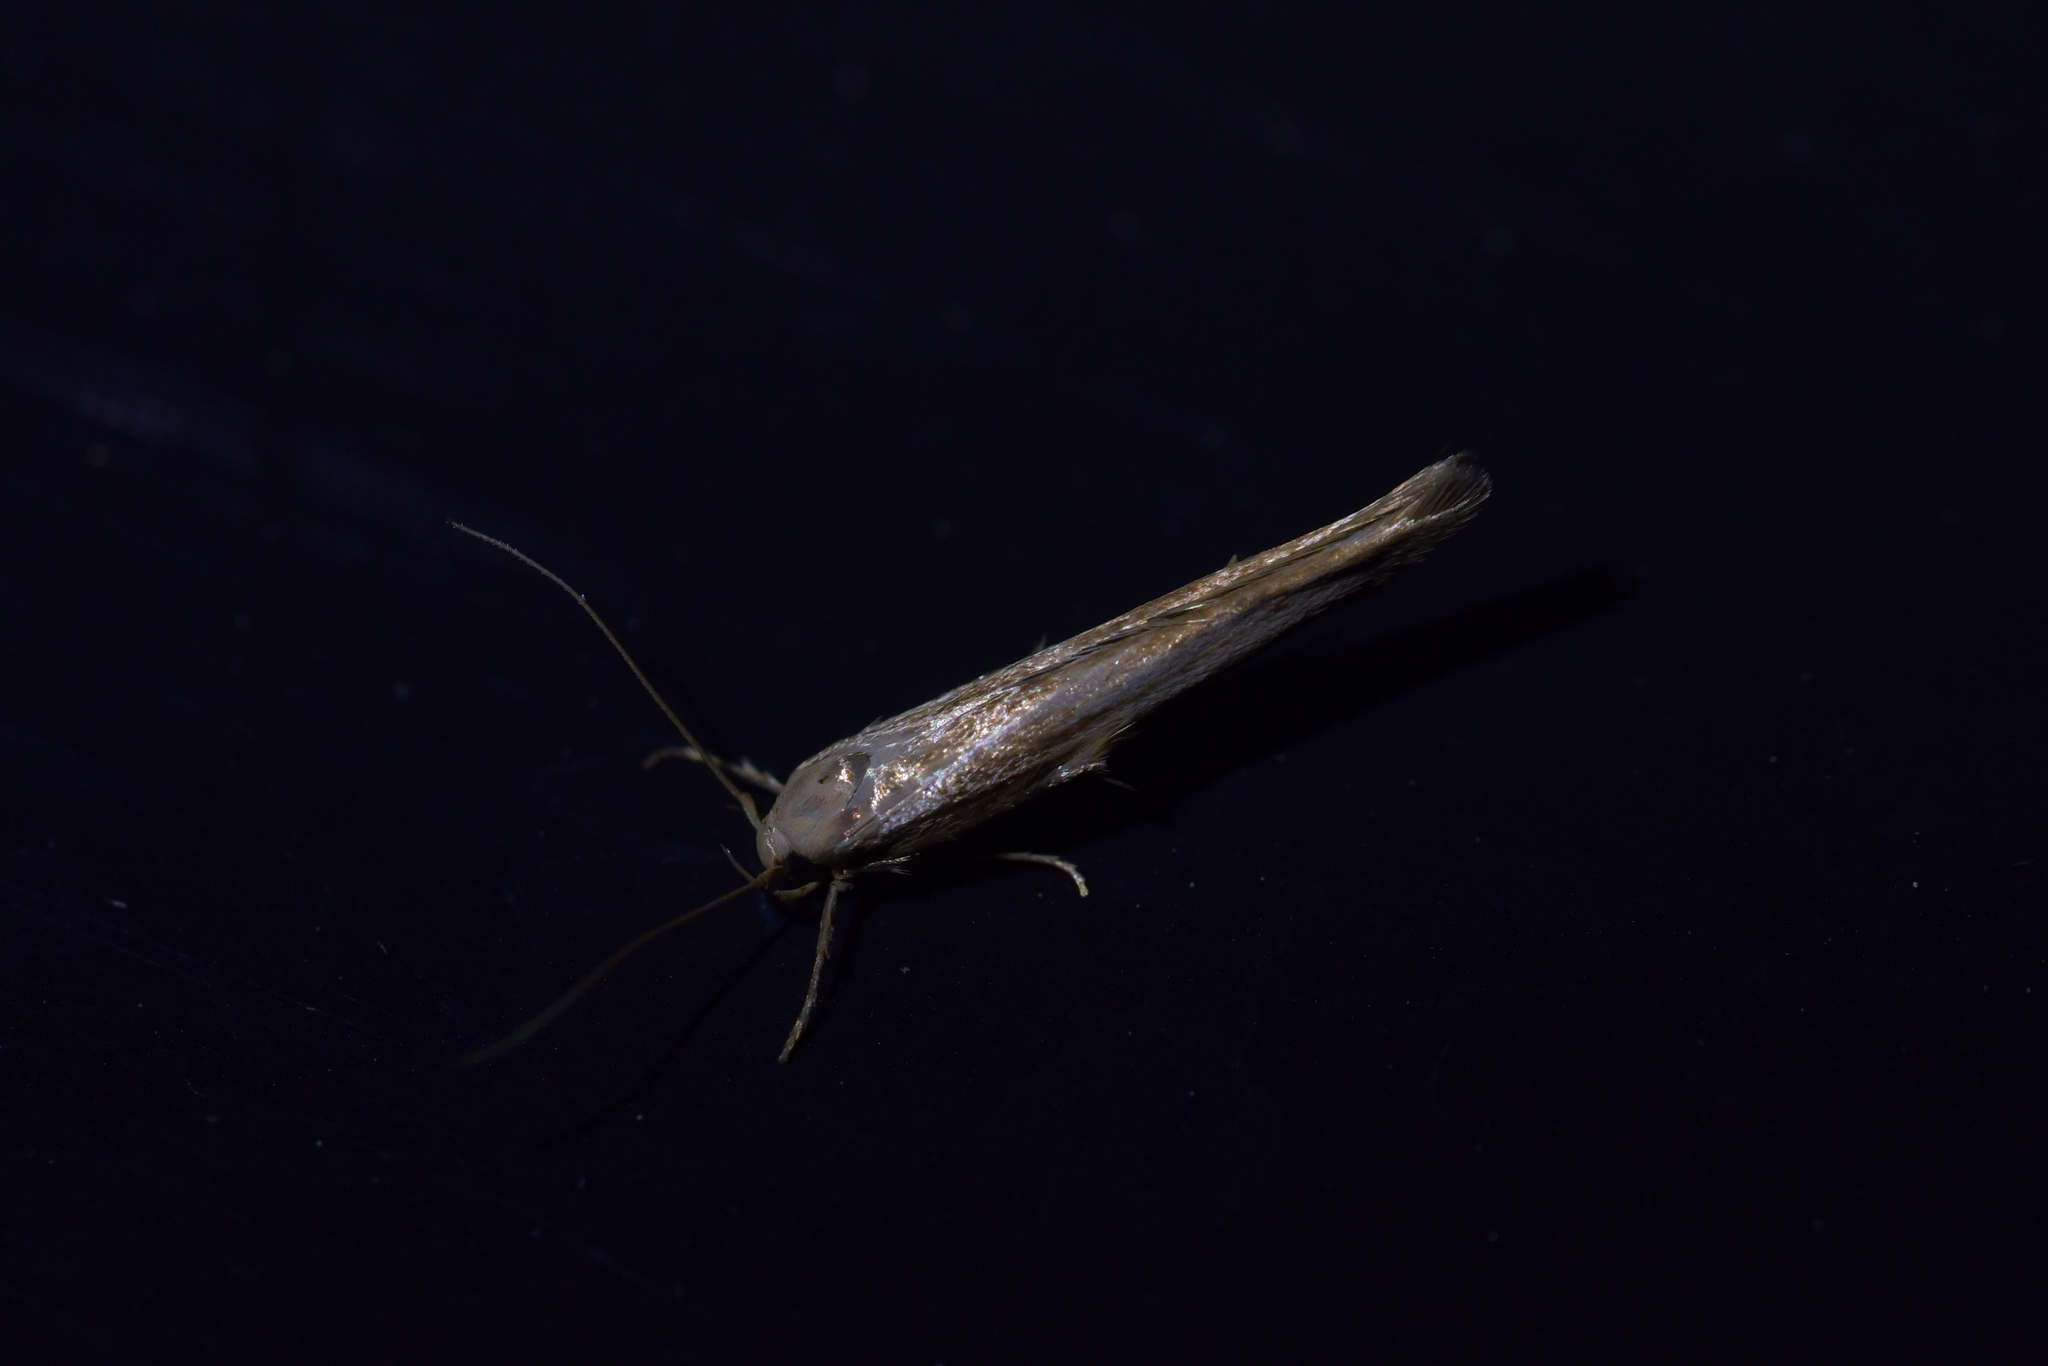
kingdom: Animalia
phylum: Arthropoda
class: Insecta
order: Lepidoptera
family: Stathmopodidae
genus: Stathmopoda
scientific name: Stathmopoda aposema
